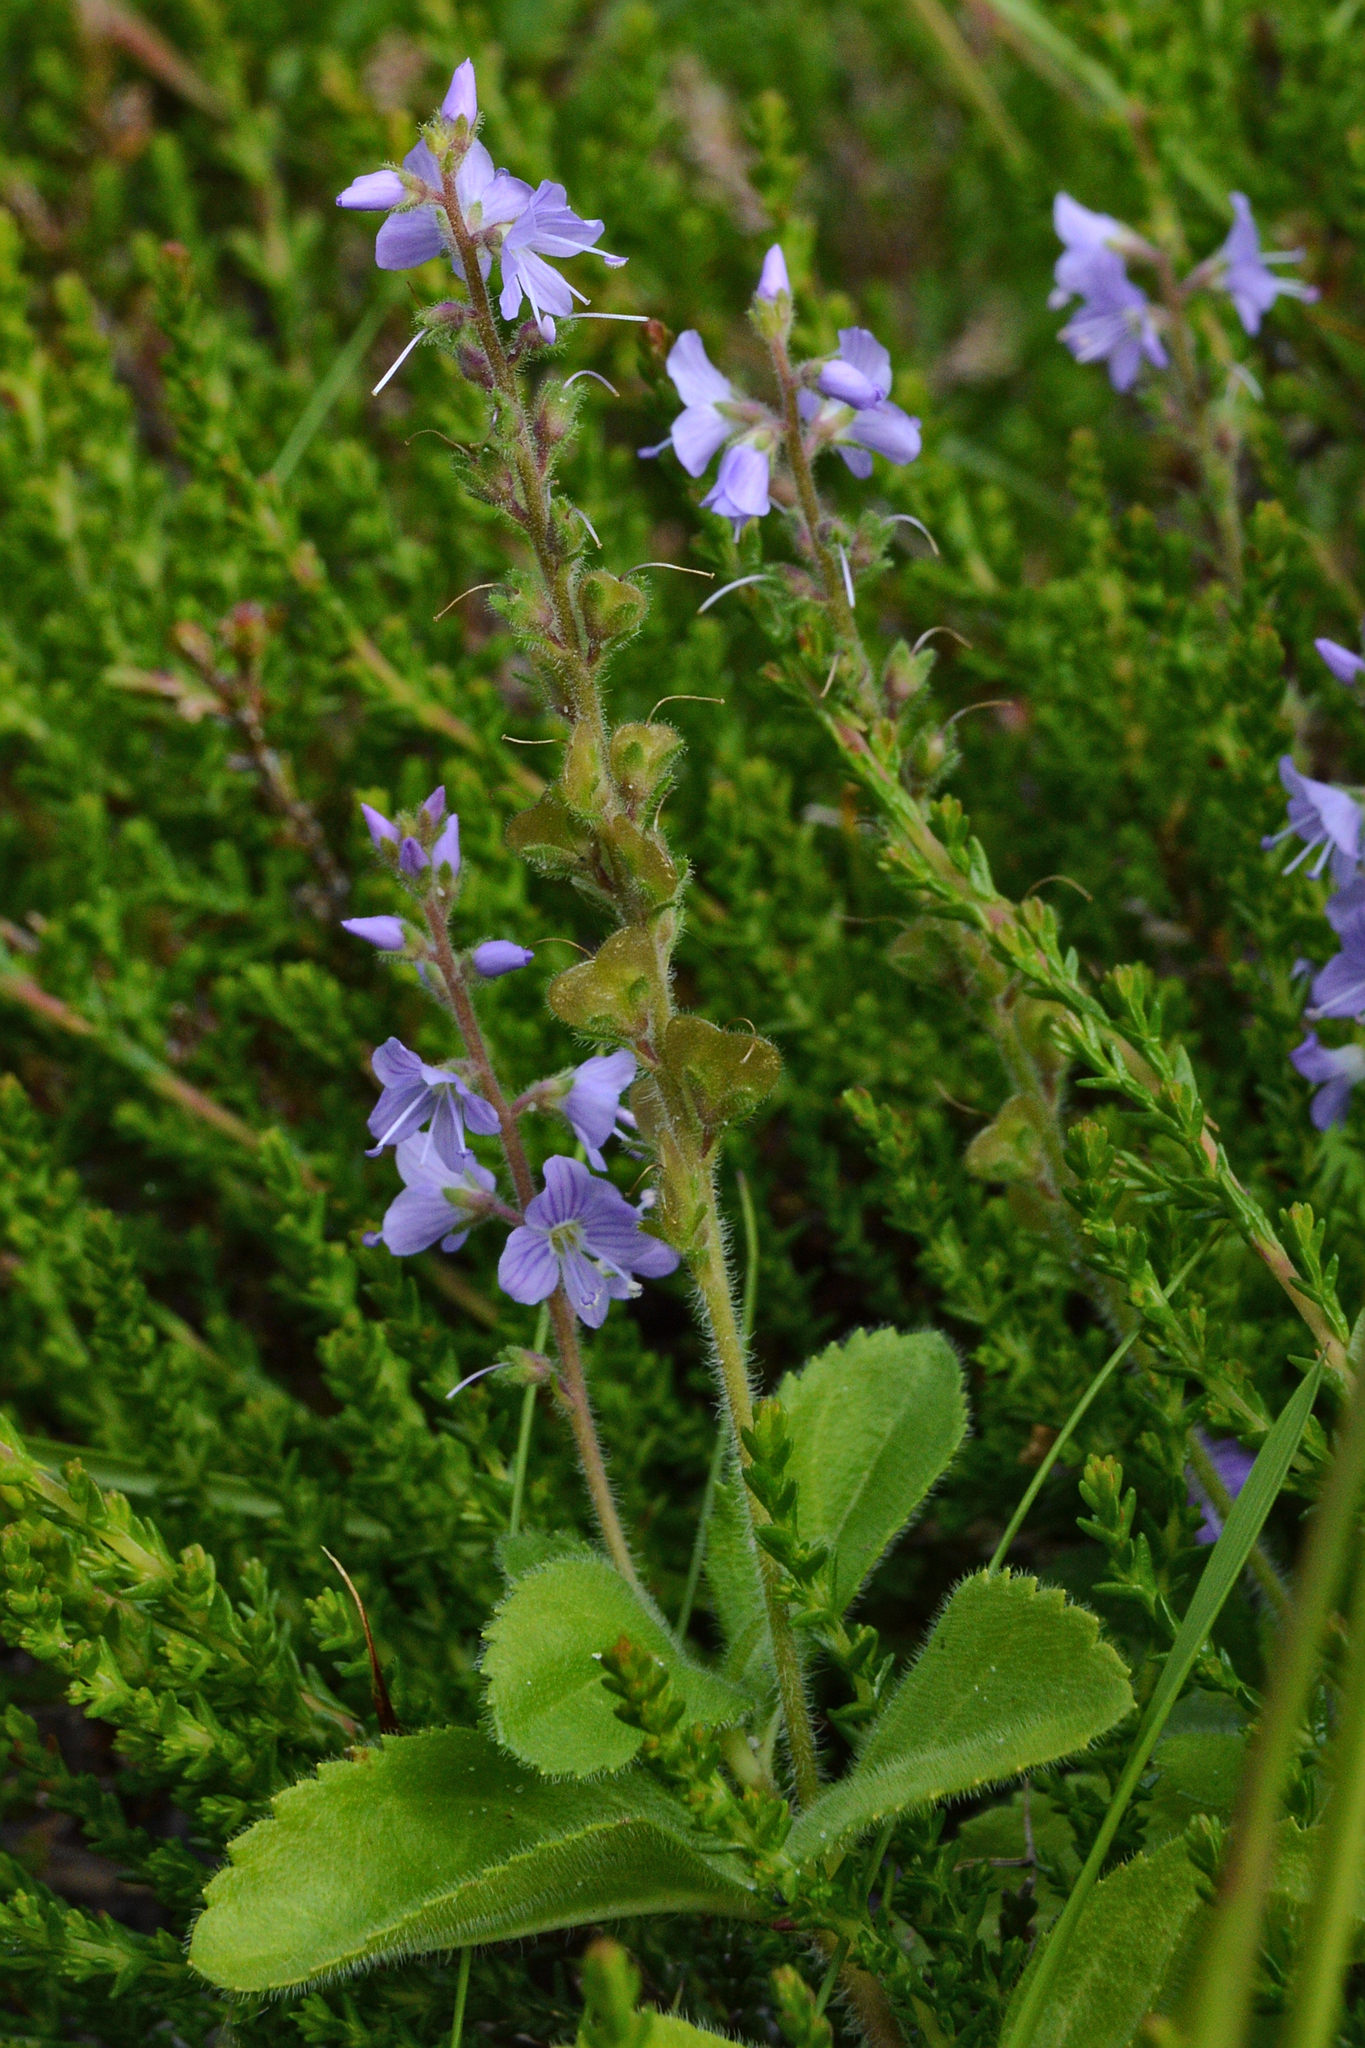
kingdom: Plantae
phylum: Tracheophyta
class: Magnoliopsida
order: Lamiales
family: Plantaginaceae
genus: Veronica
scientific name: Veronica officinalis
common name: Common speedwell
